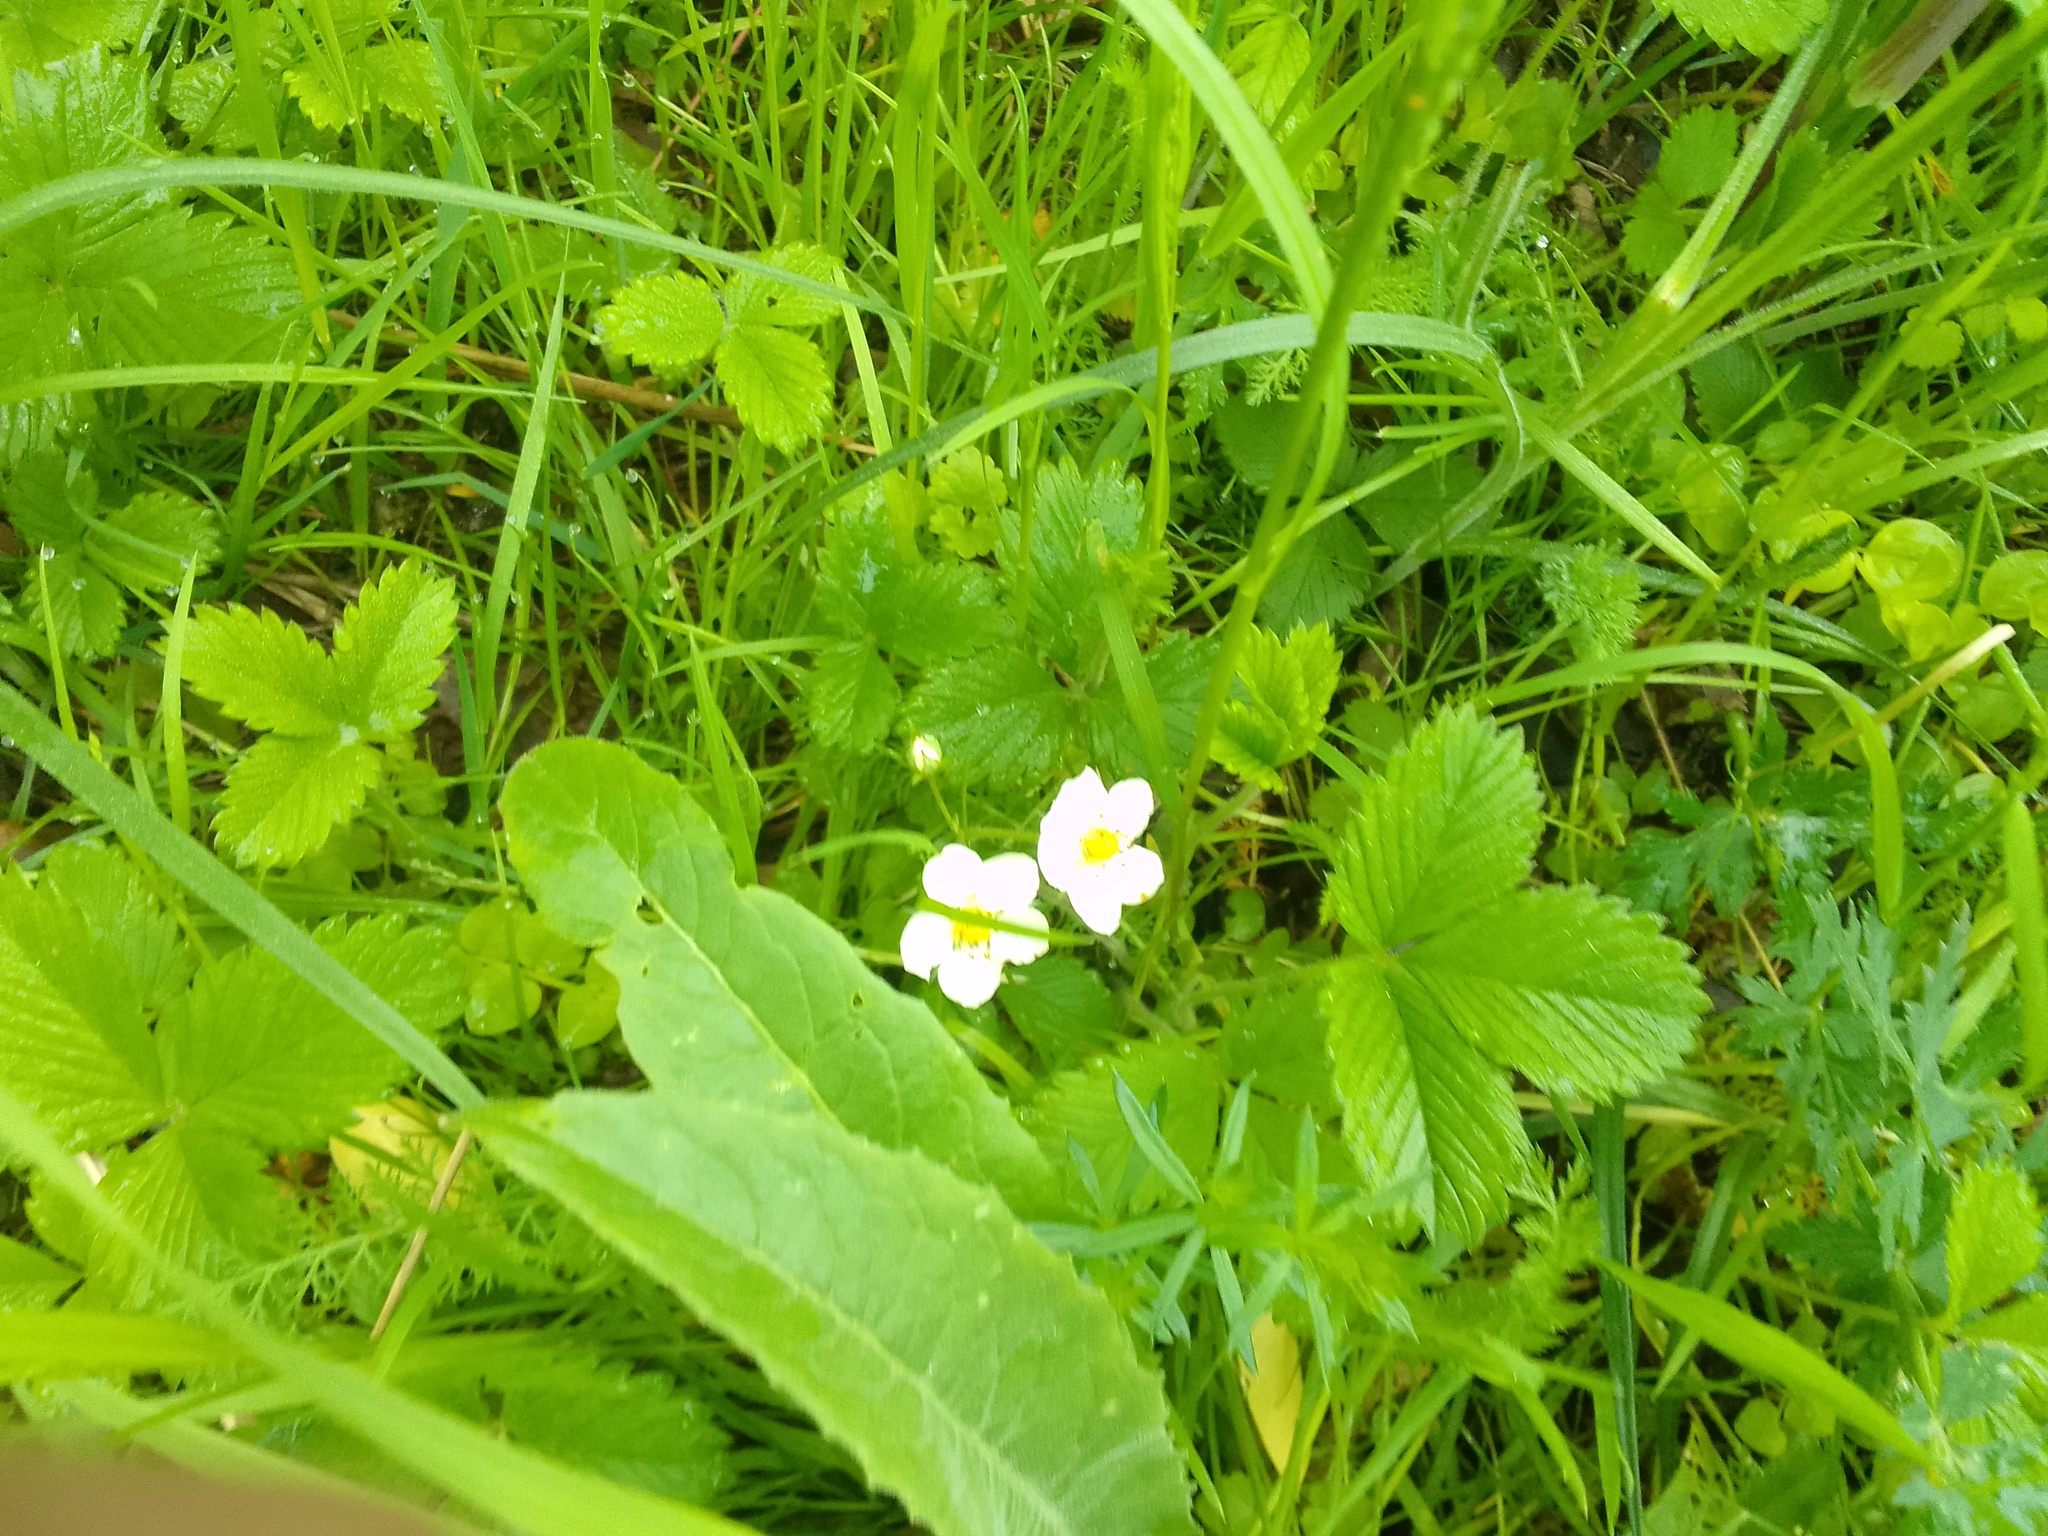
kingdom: Plantae
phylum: Tracheophyta
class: Magnoliopsida
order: Rosales
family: Rosaceae
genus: Fragaria
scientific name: Fragaria viridis
